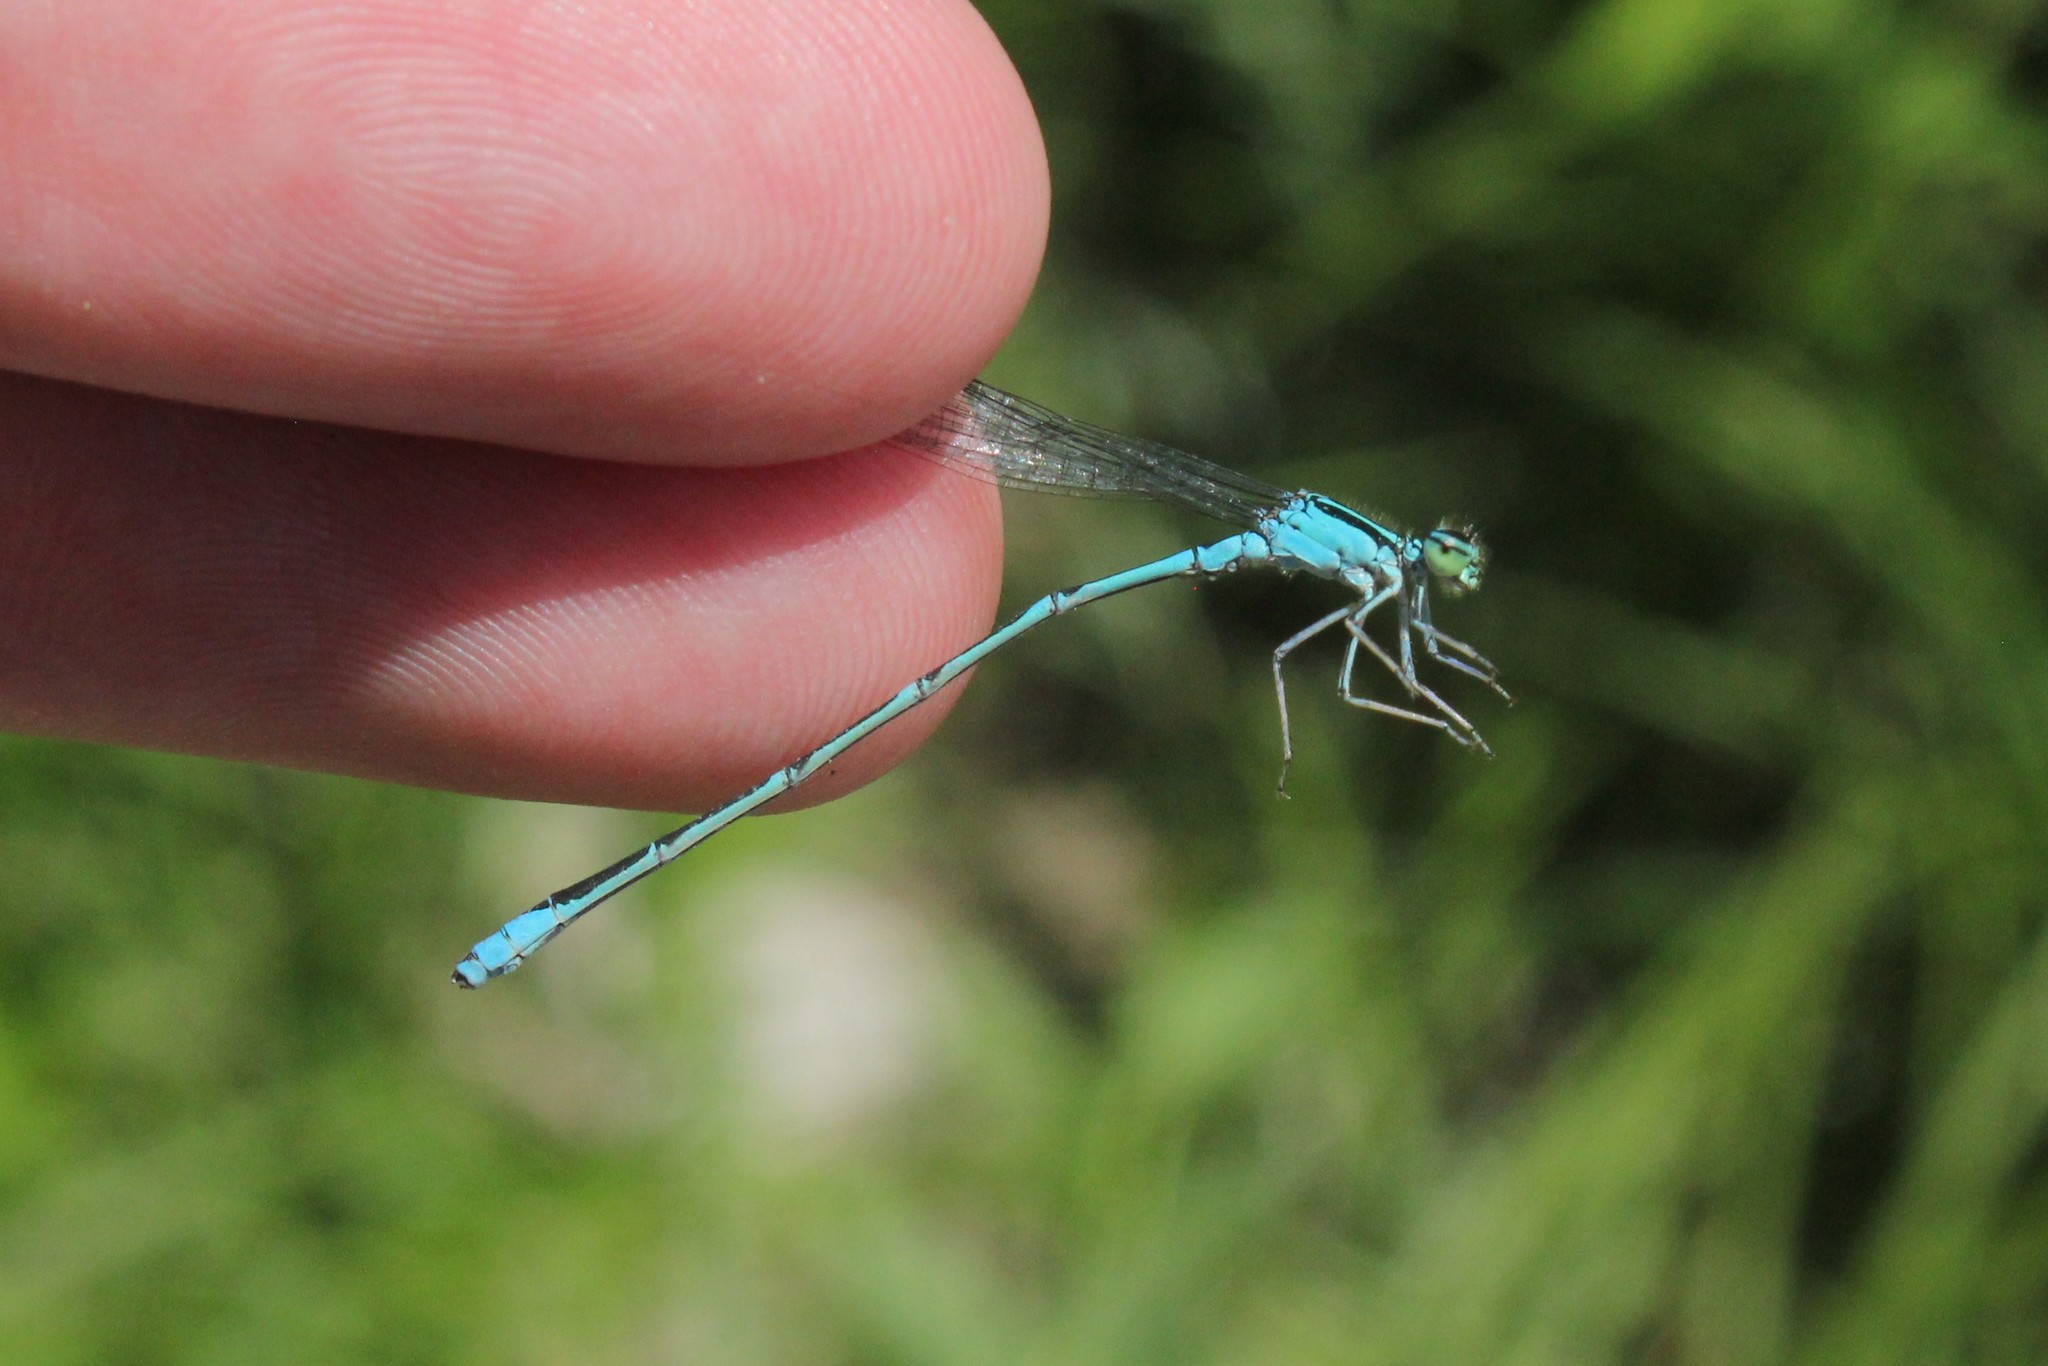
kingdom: Animalia
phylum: Arthropoda
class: Insecta
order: Odonata
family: Coenagrionidae
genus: Enallagma
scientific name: Enallagma exsulans
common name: Stream bluet
